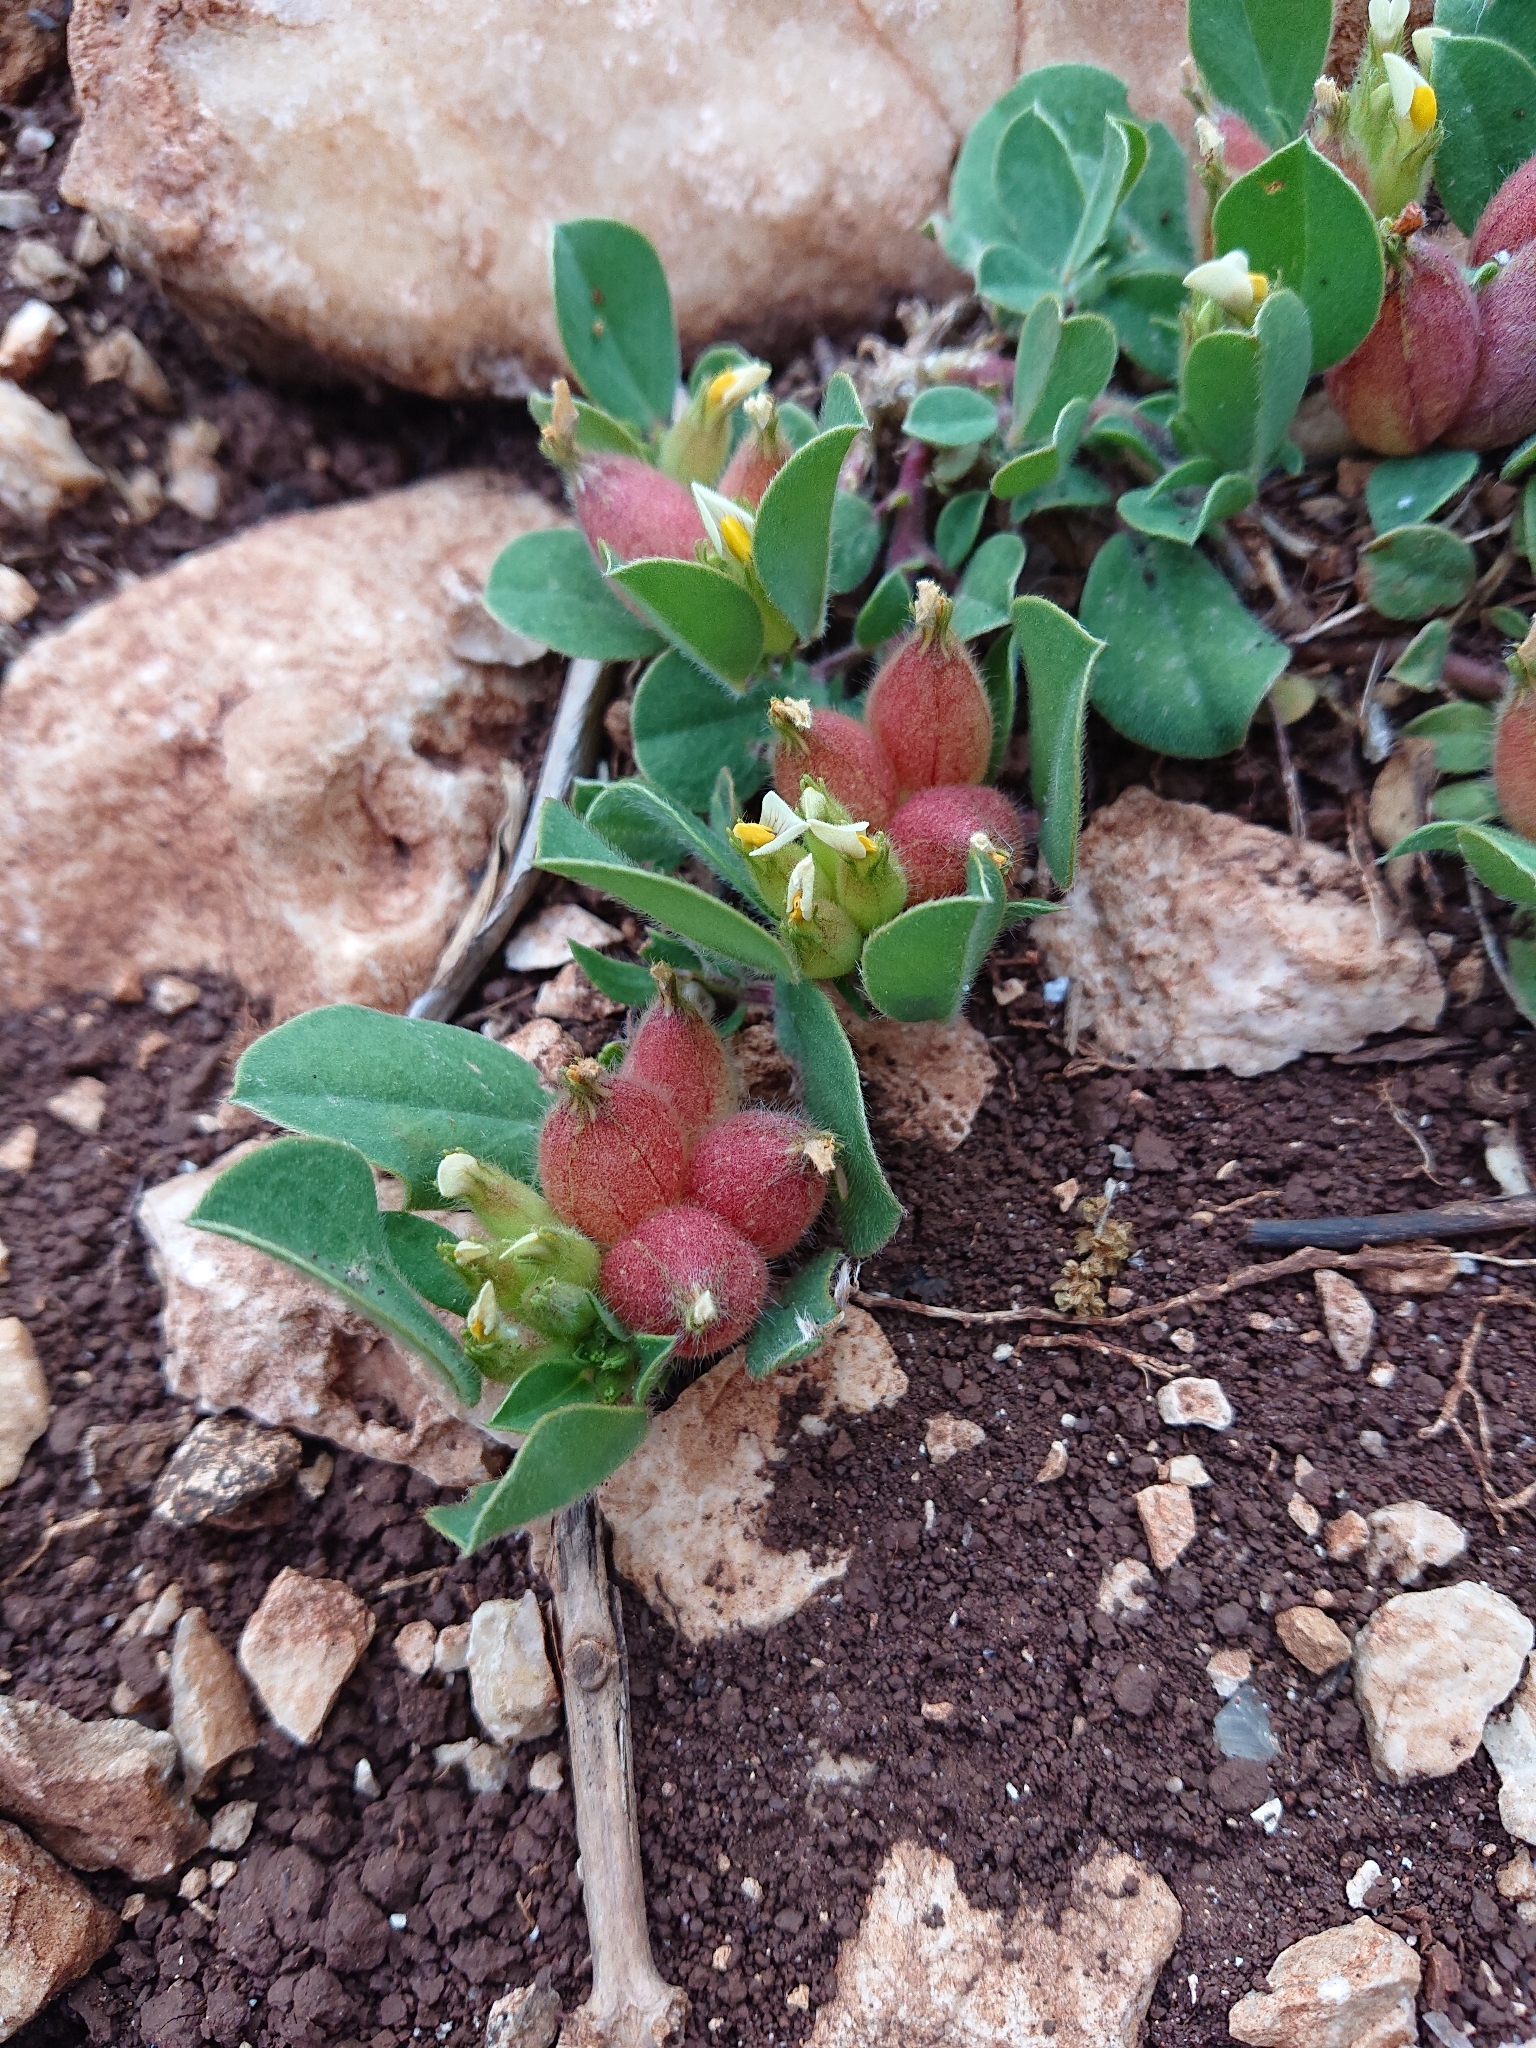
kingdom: Plantae
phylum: Tracheophyta
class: Magnoliopsida
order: Fabales
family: Fabaceae
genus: Tripodion
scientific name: Tripodion tetraphyllum
